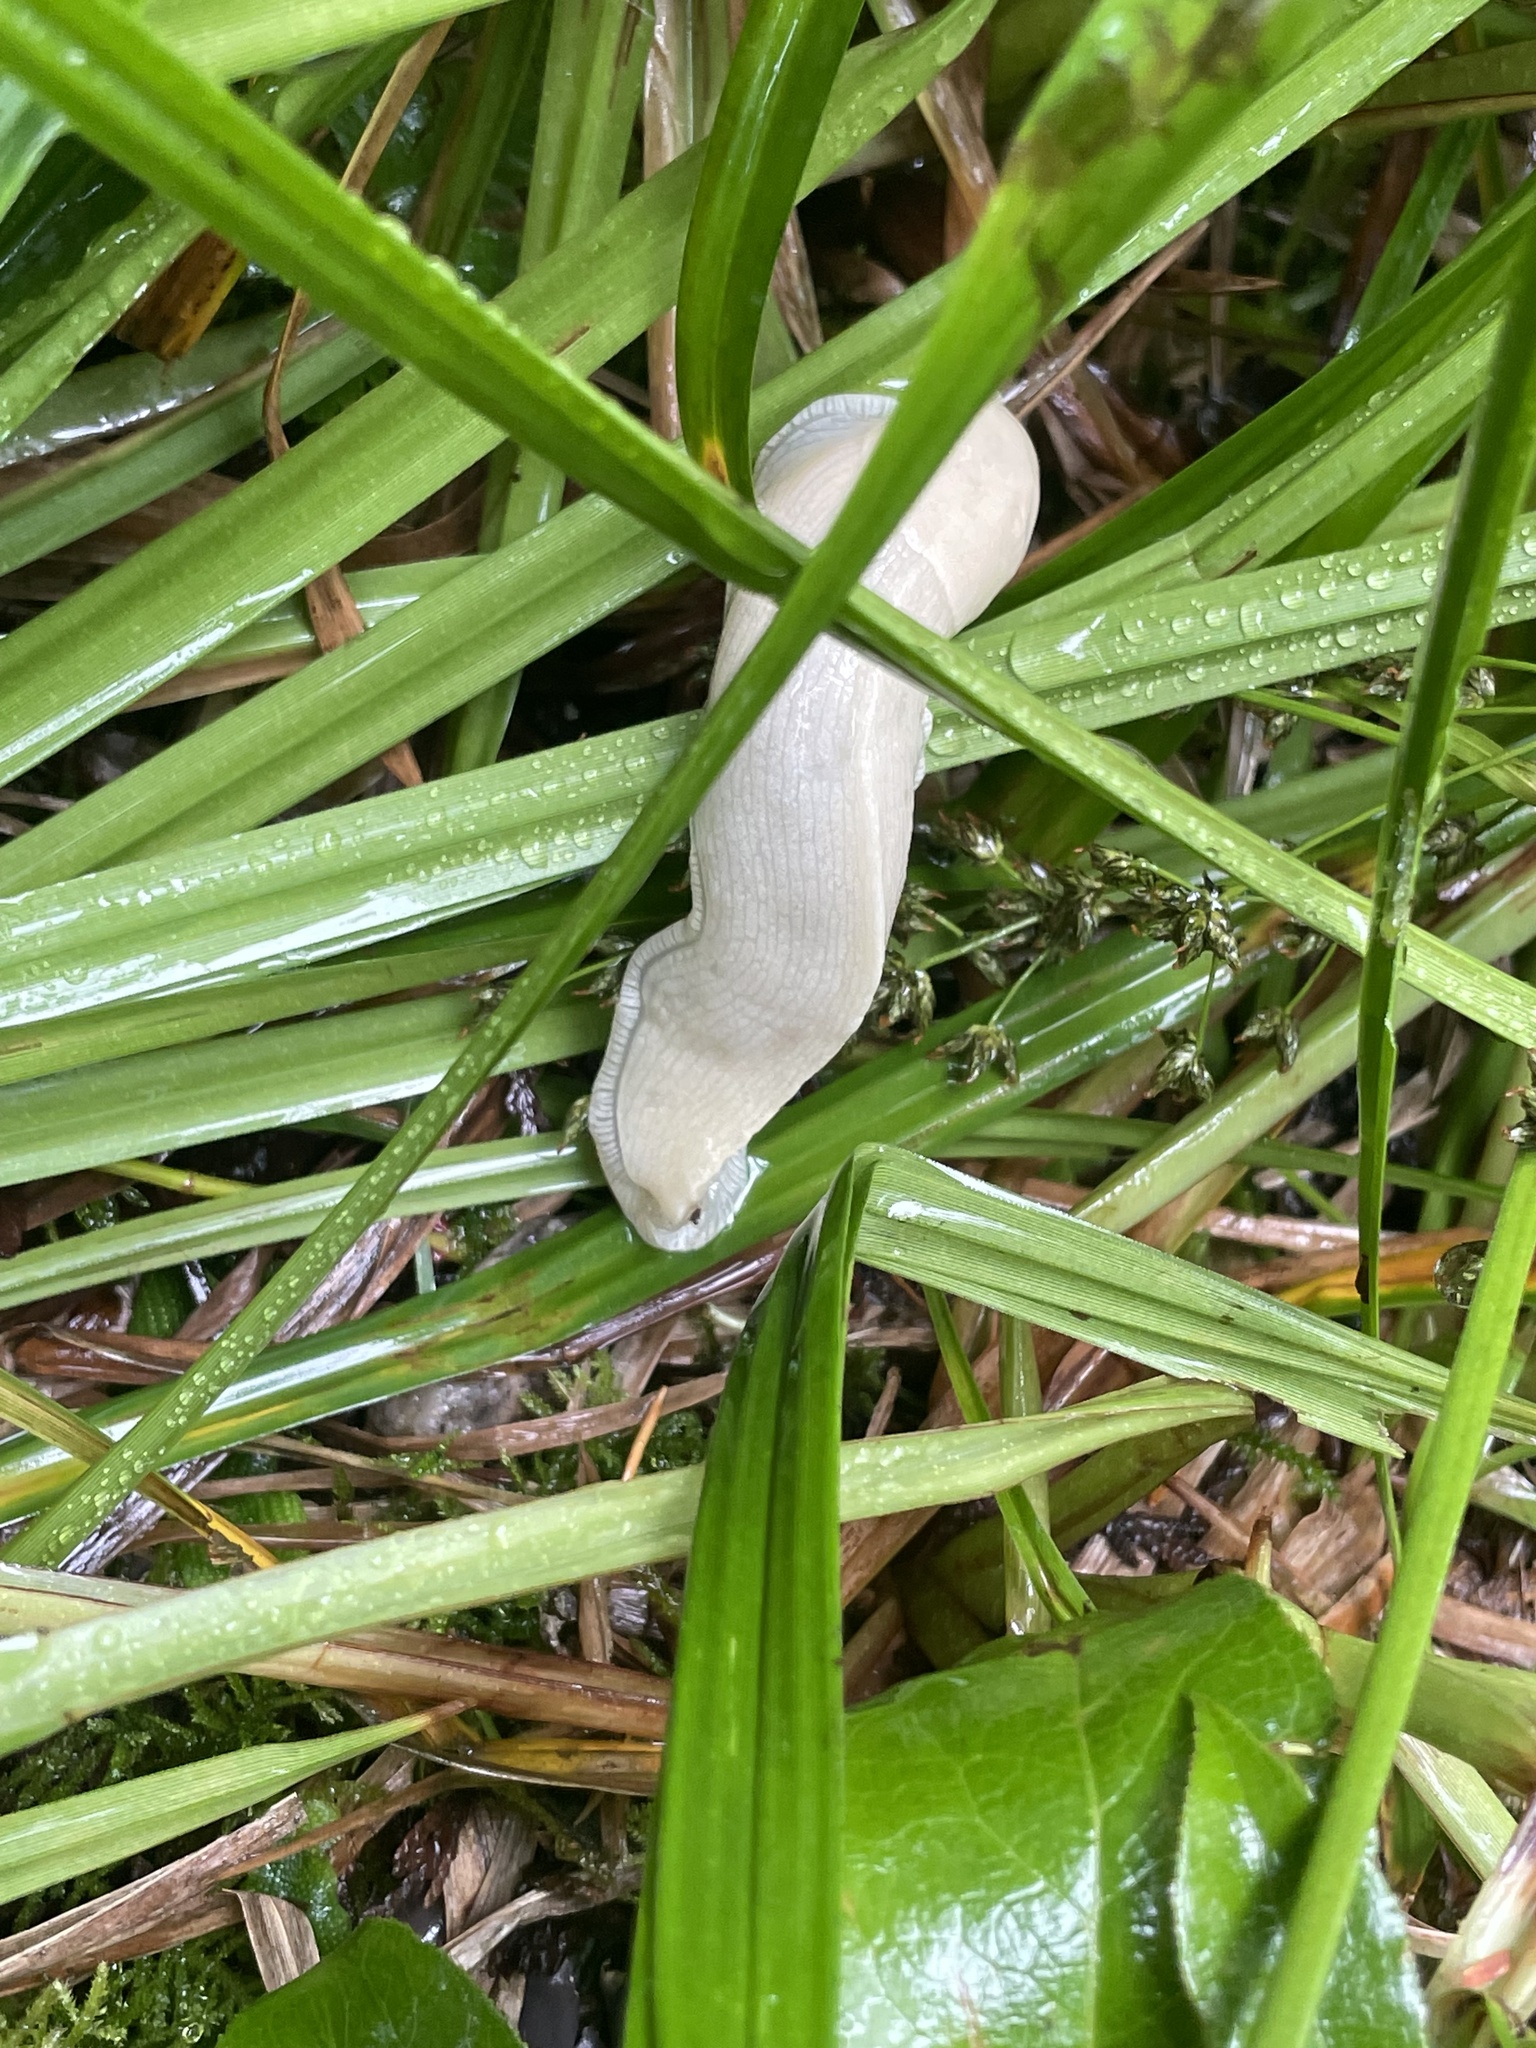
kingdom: Animalia
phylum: Mollusca
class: Gastropoda
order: Stylommatophora
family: Ariolimacidae
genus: Ariolimax
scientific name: Ariolimax columbianus
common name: Pacific banana slug
